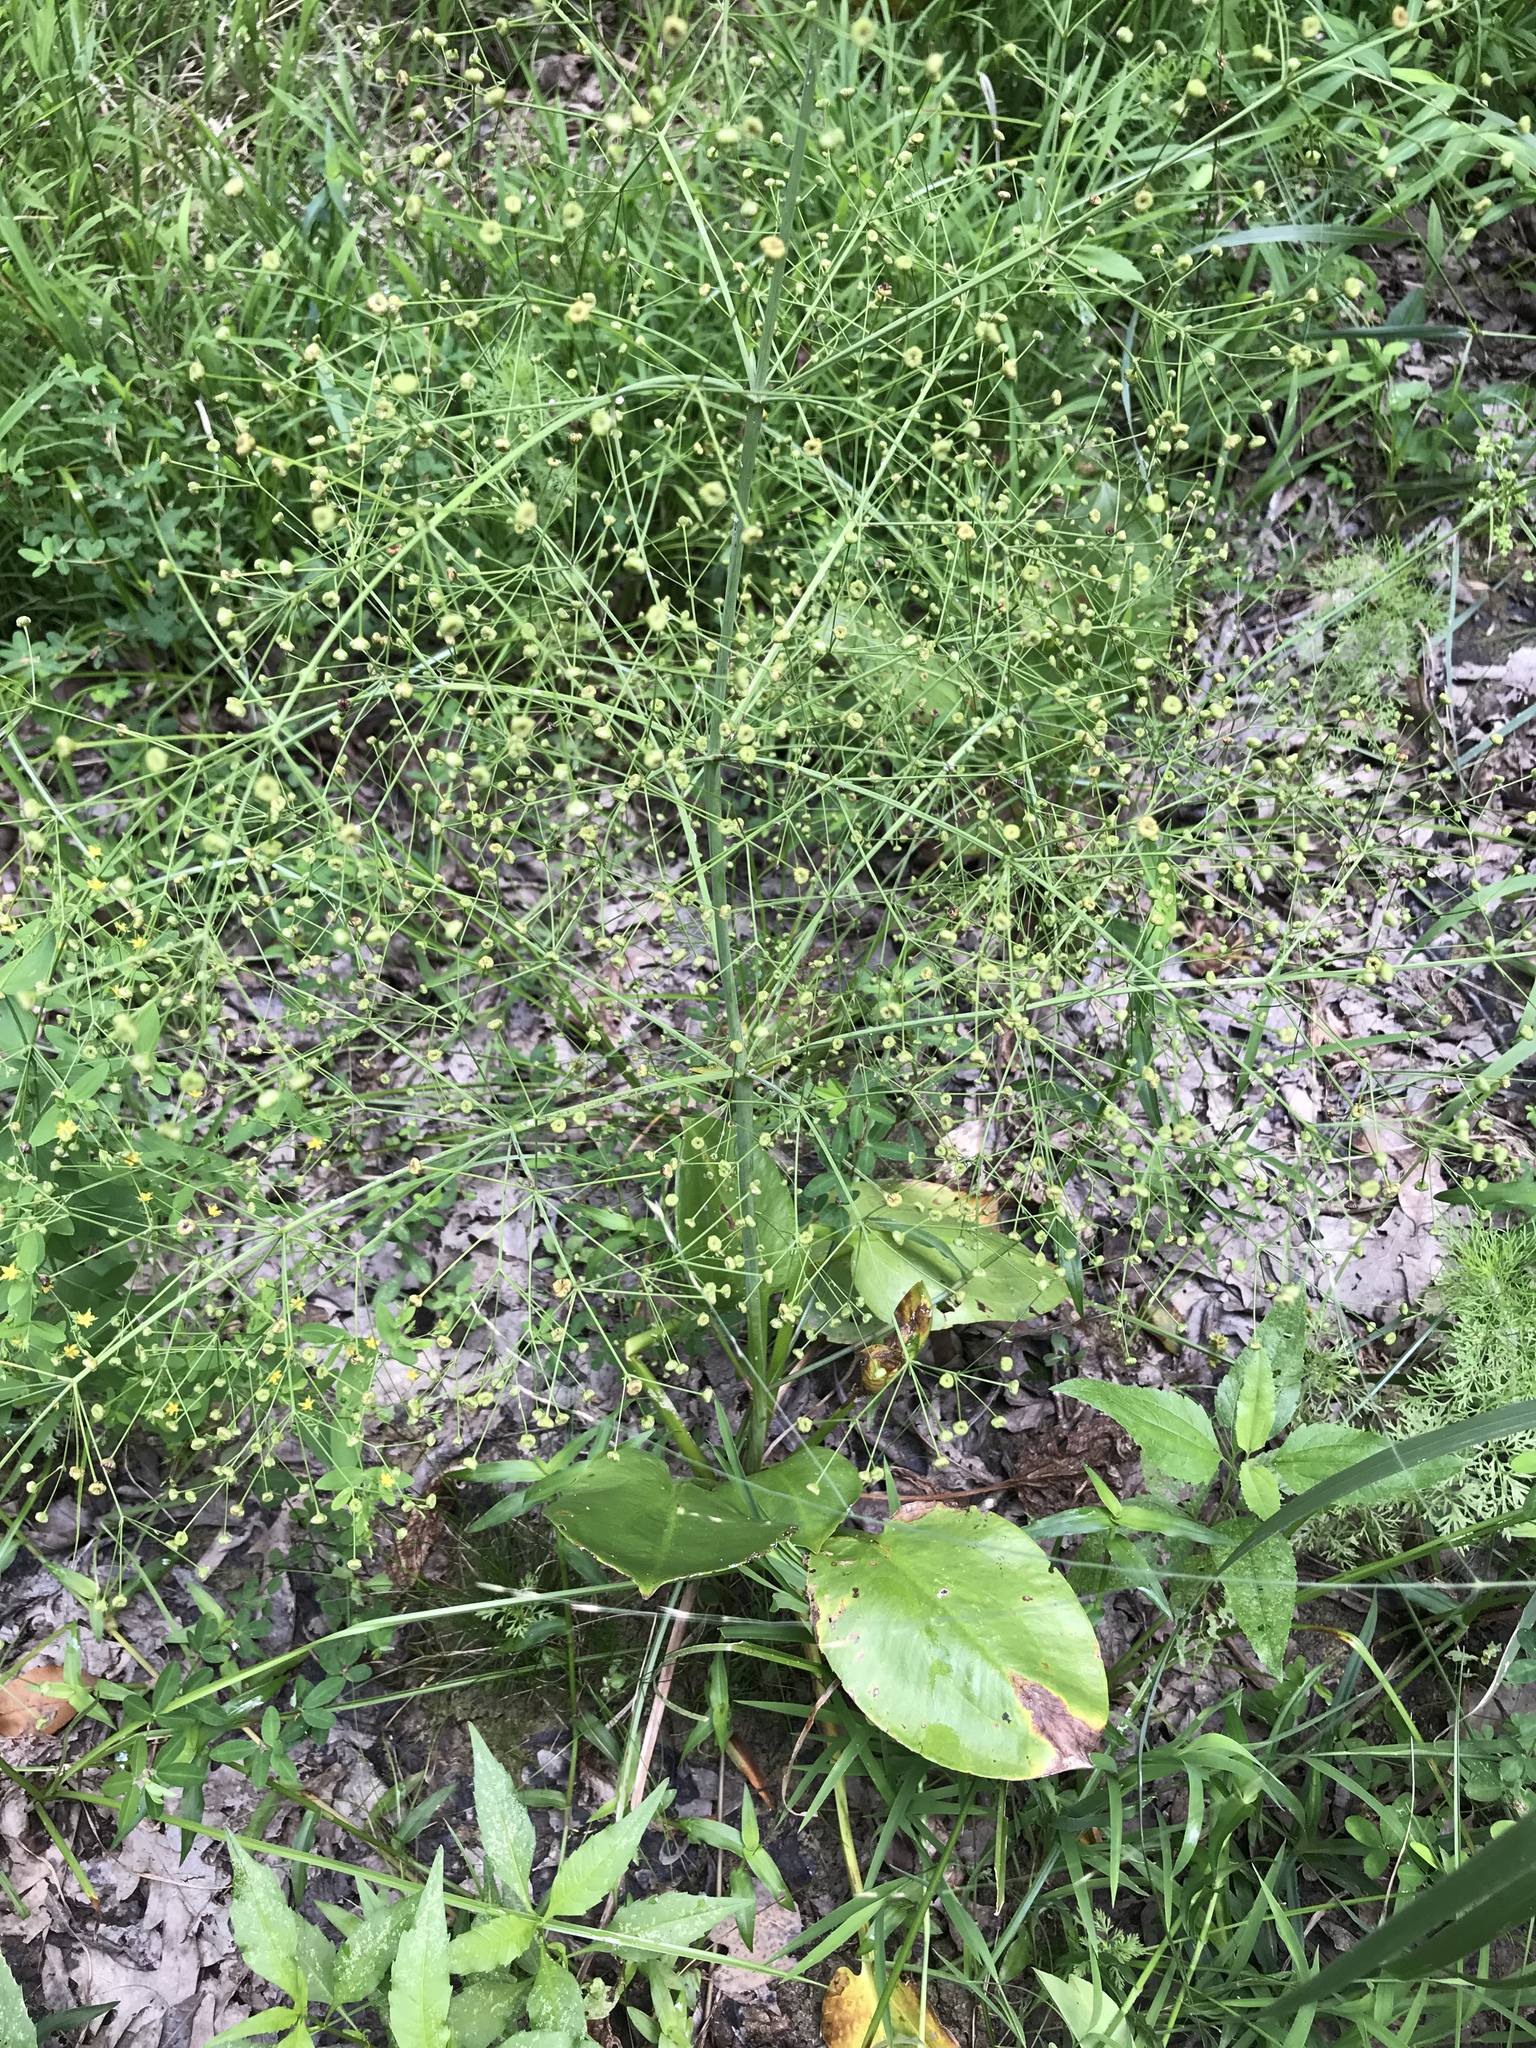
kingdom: Plantae
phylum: Tracheophyta
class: Liliopsida
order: Alismatales
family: Alismataceae
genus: Alisma
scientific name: Alisma subcordatum
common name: Southern water-plantain
